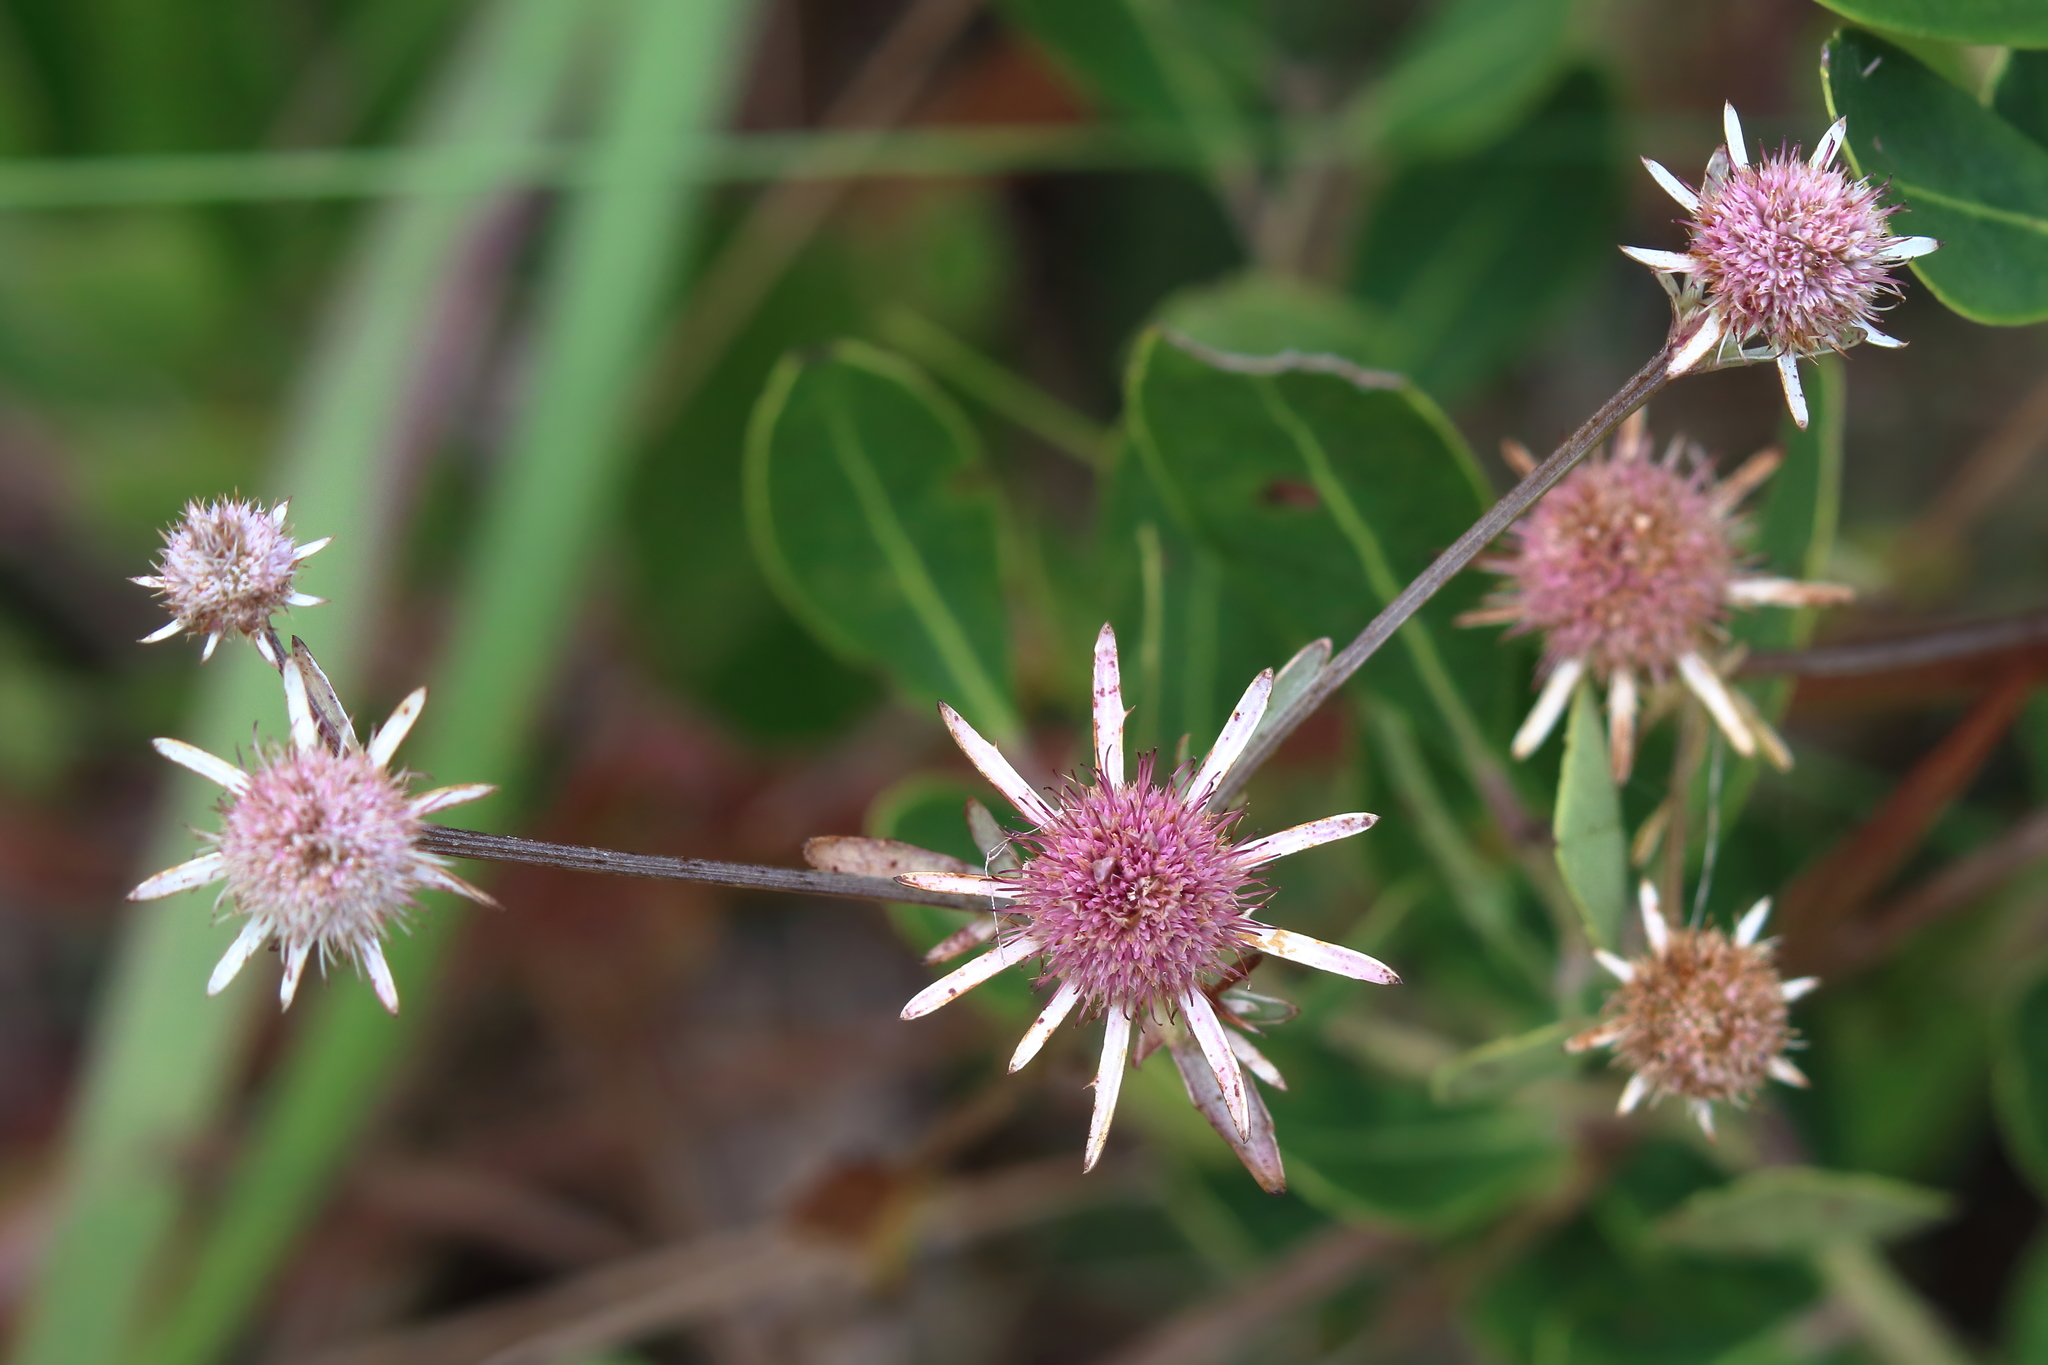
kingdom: Plantae
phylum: Tracheophyta
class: Magnoliopsida
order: Apiales
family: Apiaceae
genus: Eryngium
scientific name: Eryngium integrifolium
